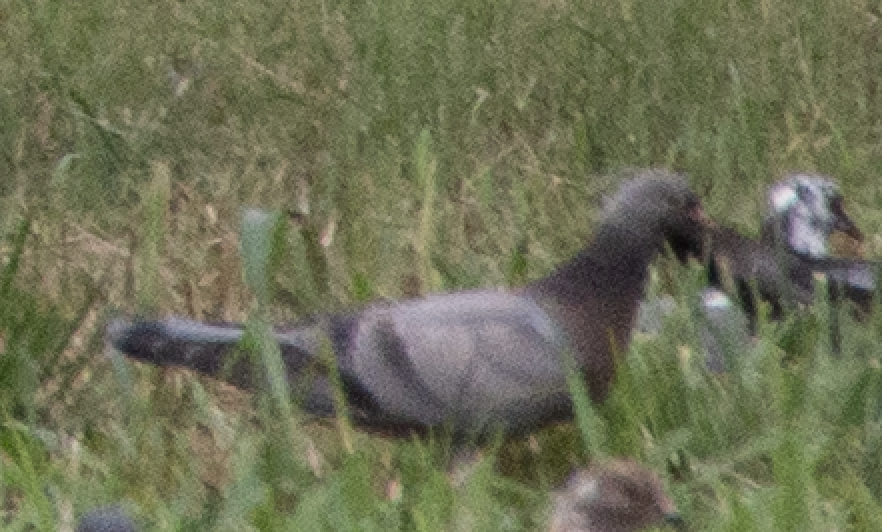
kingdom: Animalia
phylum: Chordata
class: Aves
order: Columbiformes
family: Columbidae
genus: Columba
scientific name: Columba livia
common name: Rock pigeon
